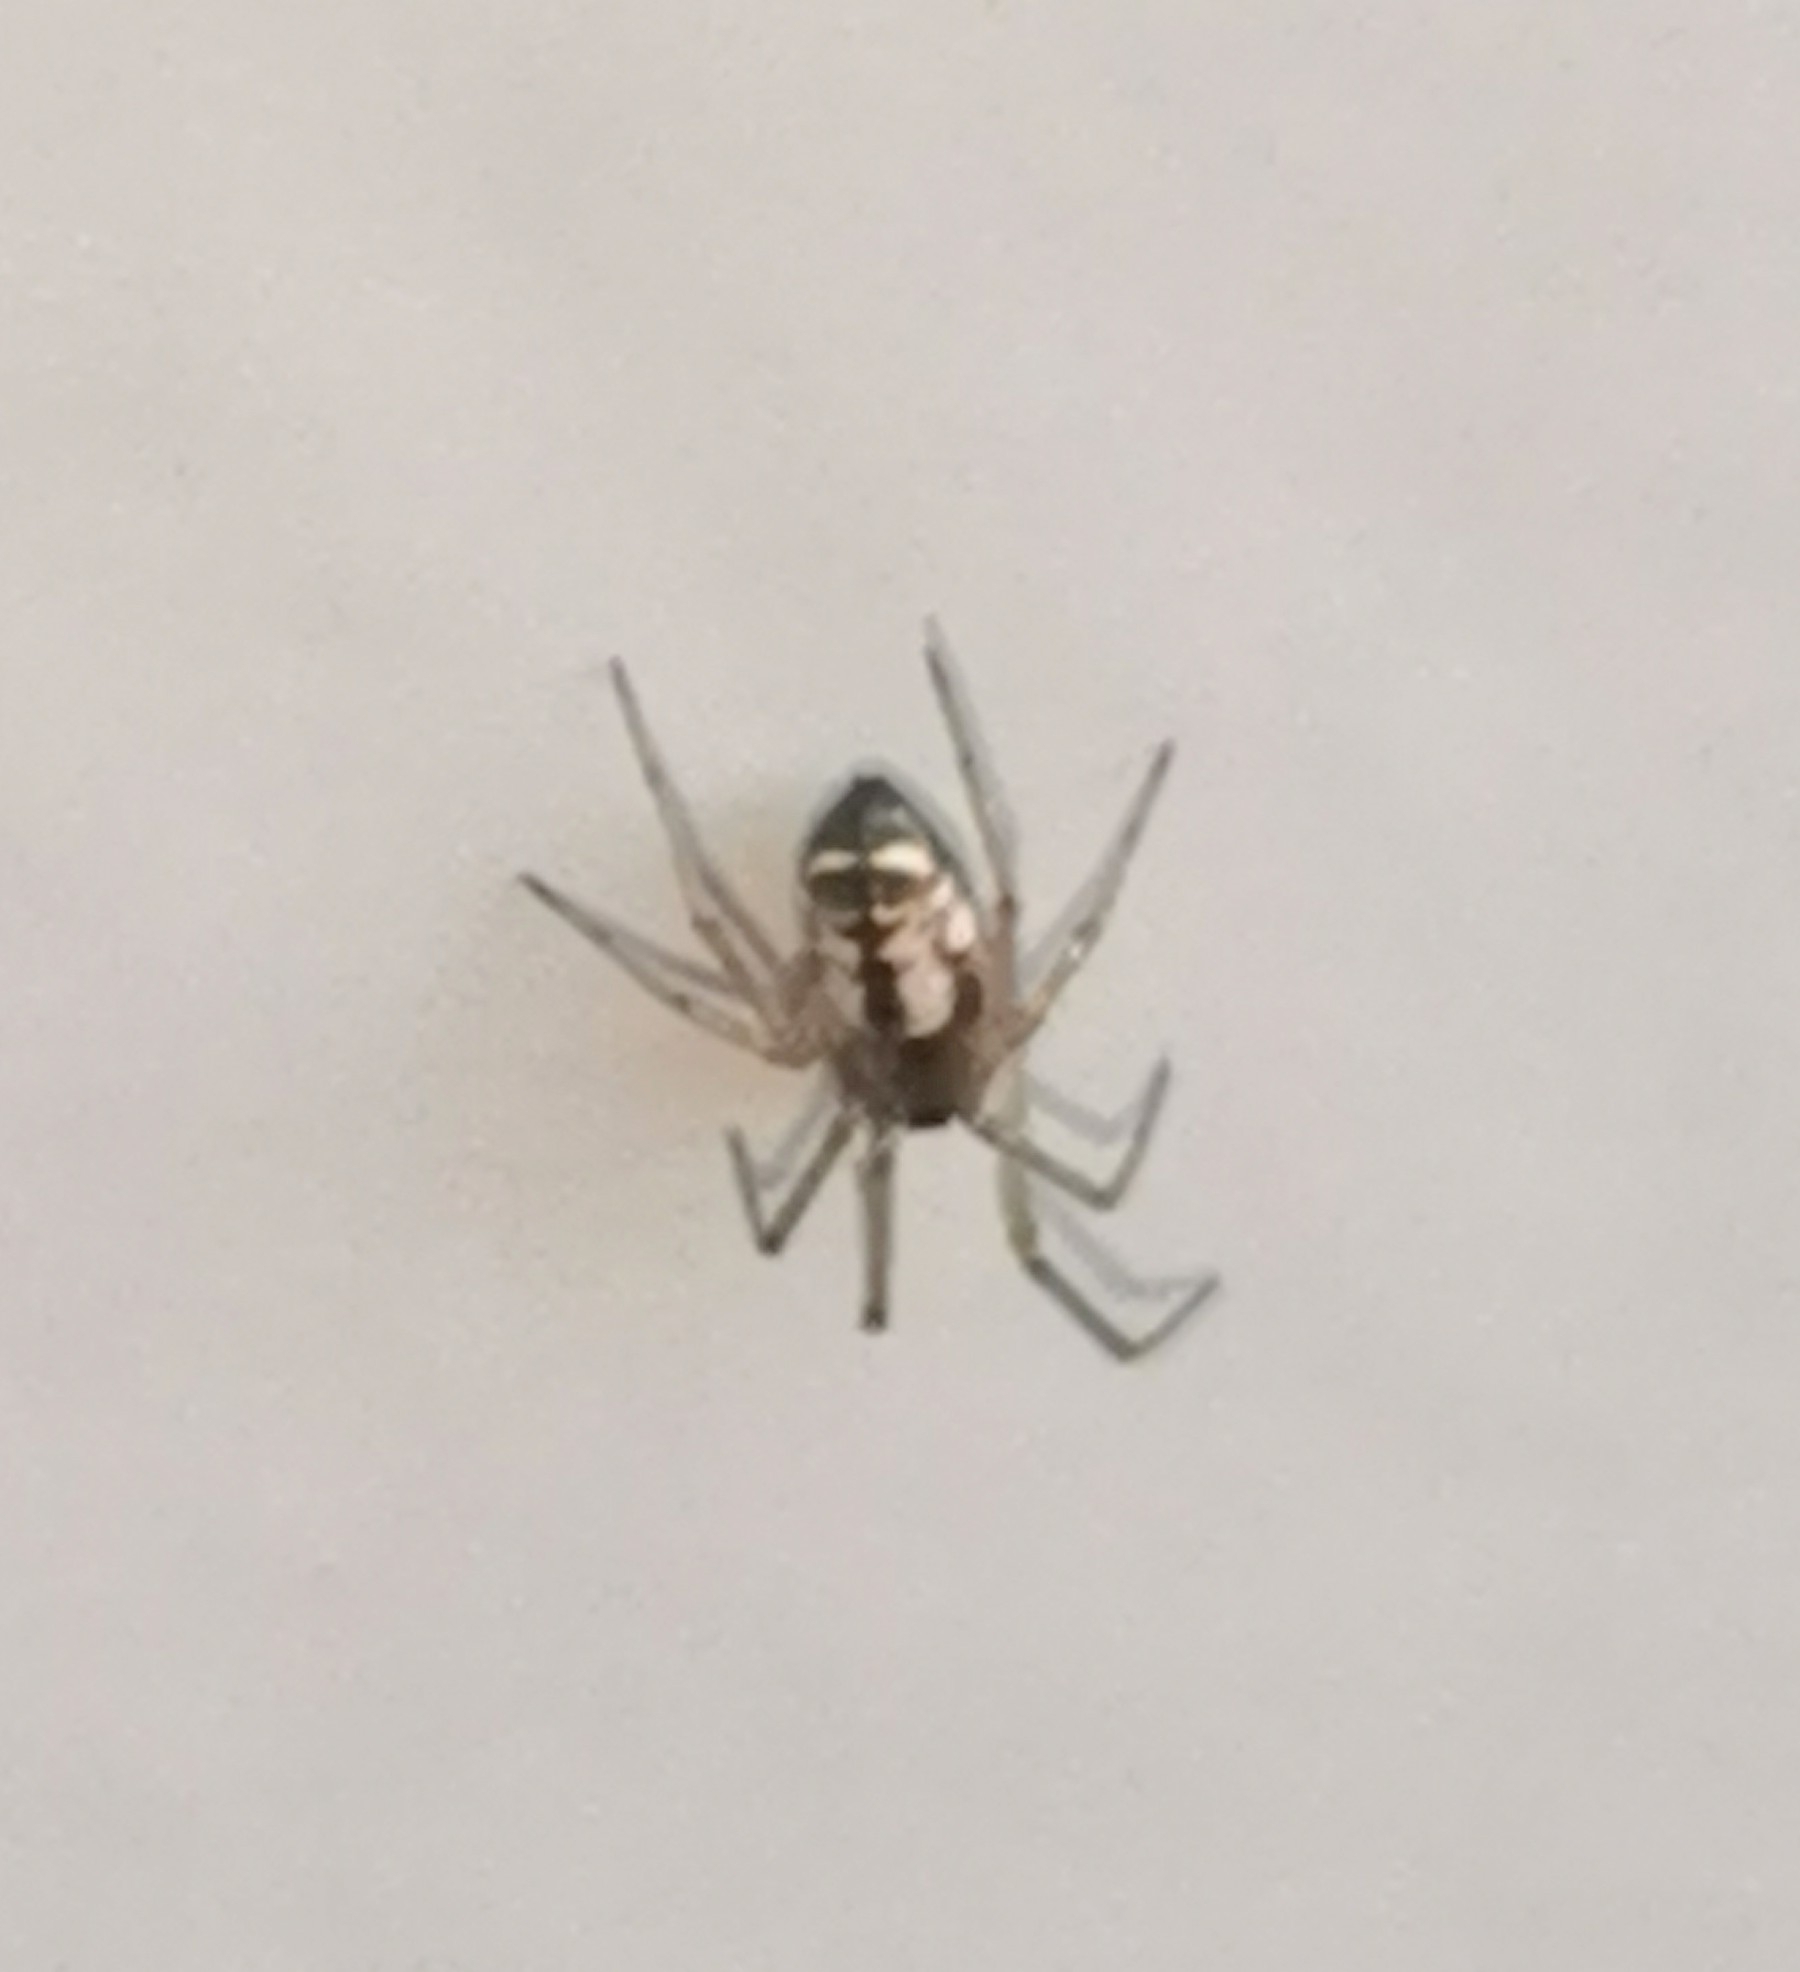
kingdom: Animalia
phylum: Arthropoda
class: Arachnida
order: Araneae
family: Linyphiidae
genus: Microlinyphia
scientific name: Microlinyphia pusilla
